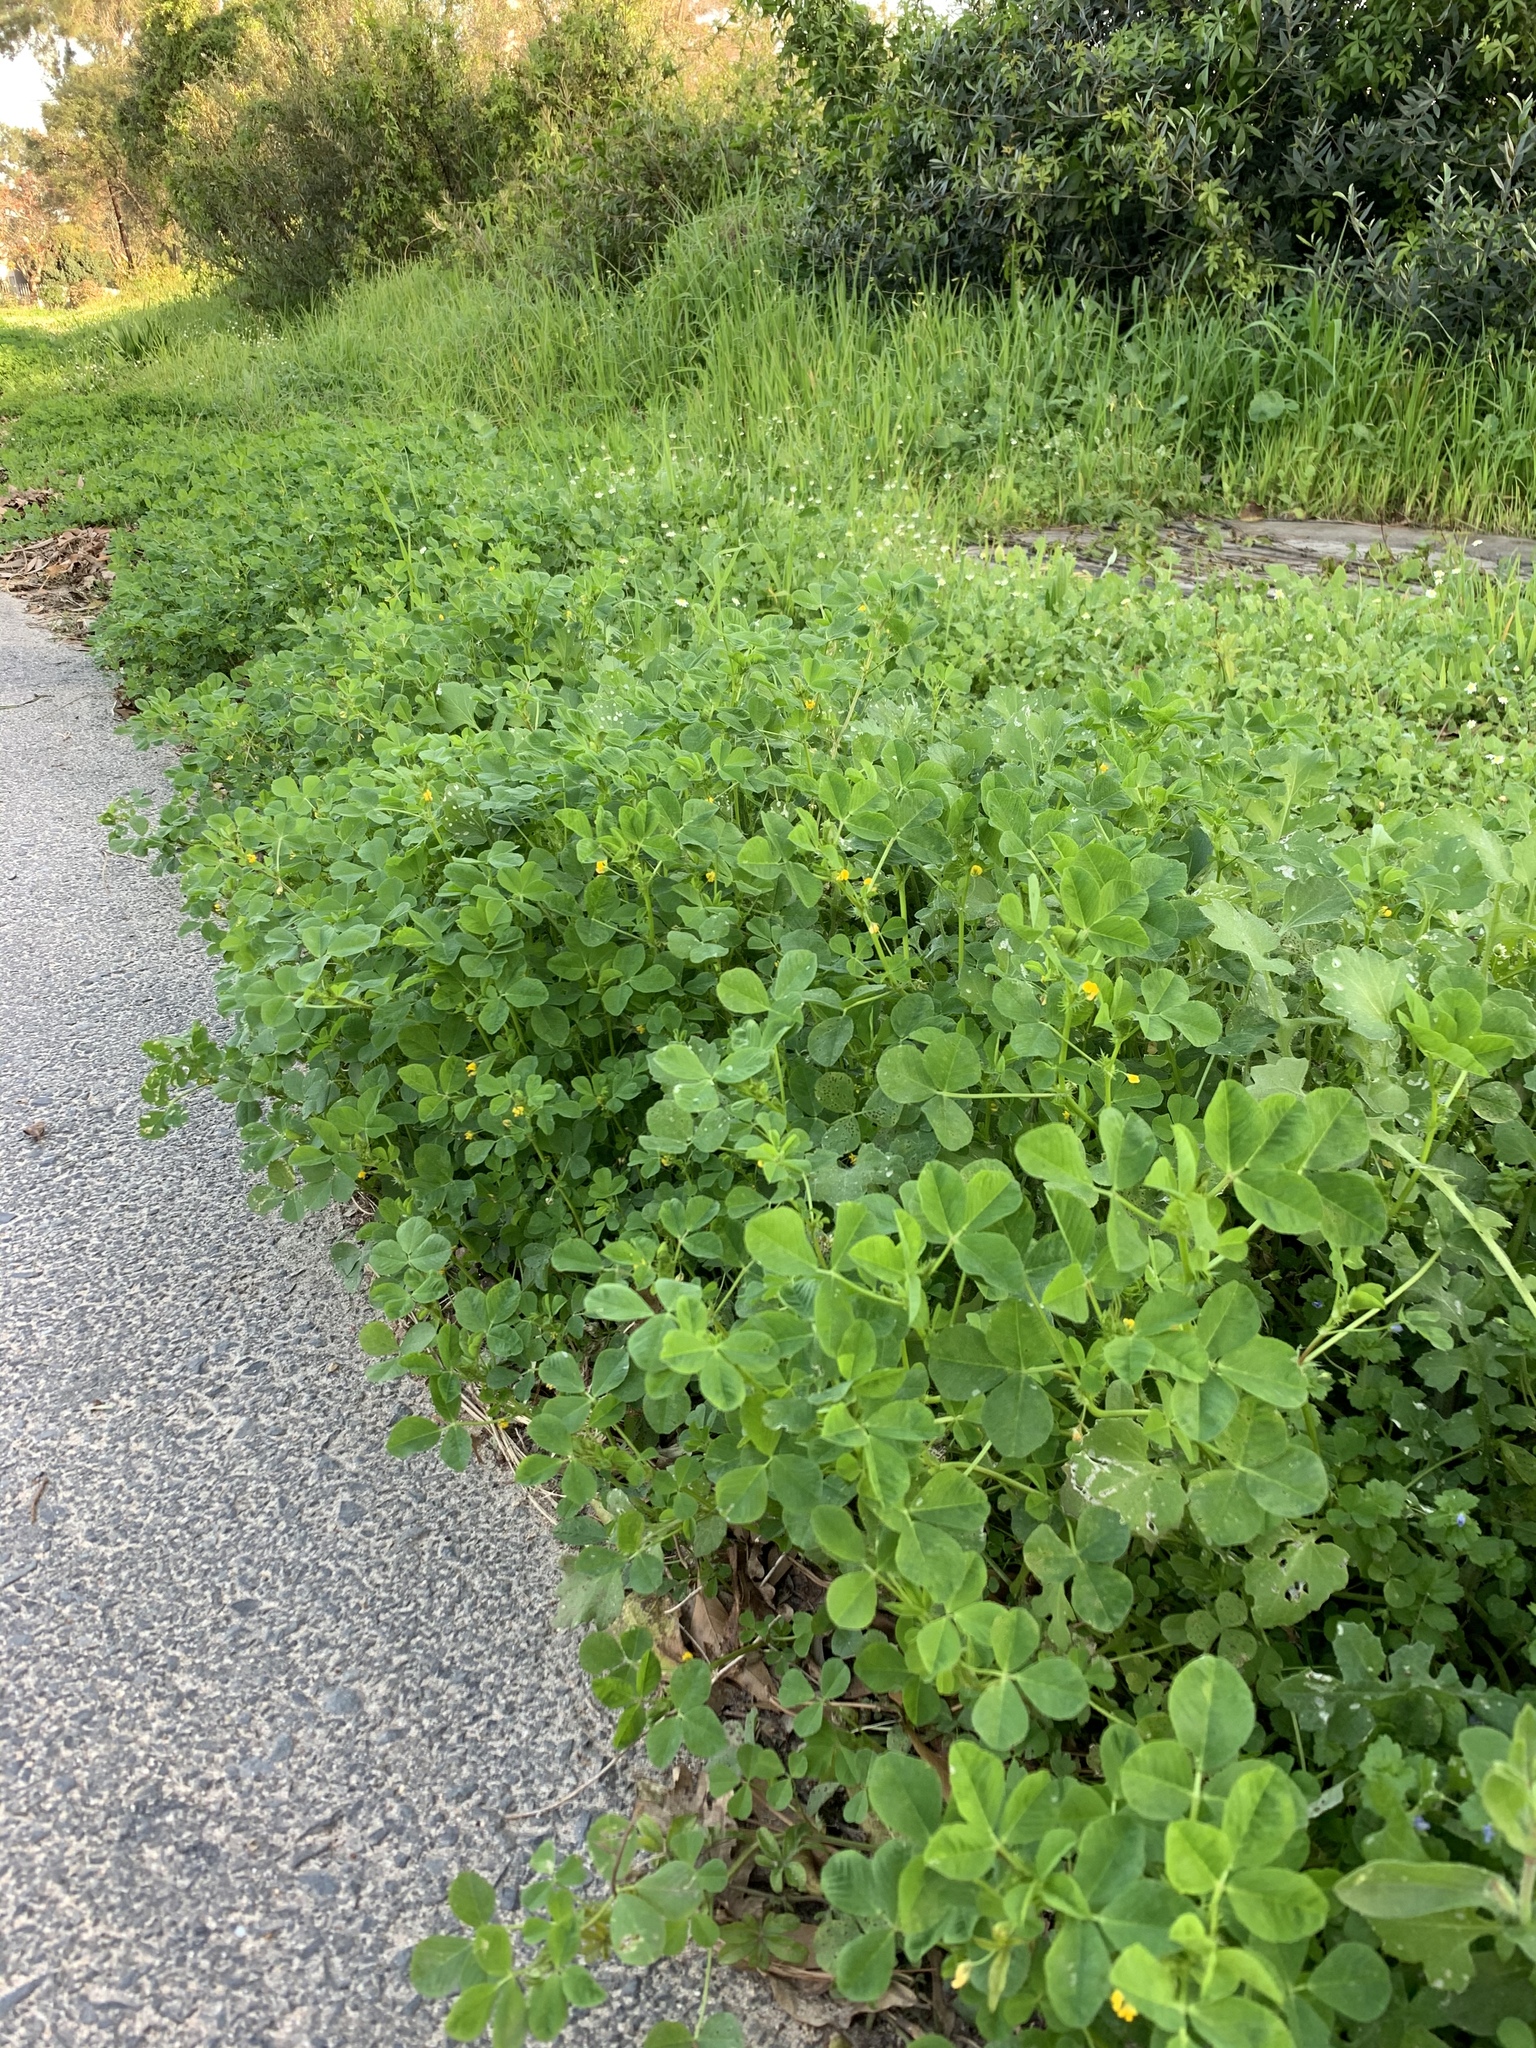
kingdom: Plantae
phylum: Tracheophyta
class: Magnoliopsida
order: Fabales
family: Fabaceae
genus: Medicago
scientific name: Medicago polymorpha
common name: Burclover
